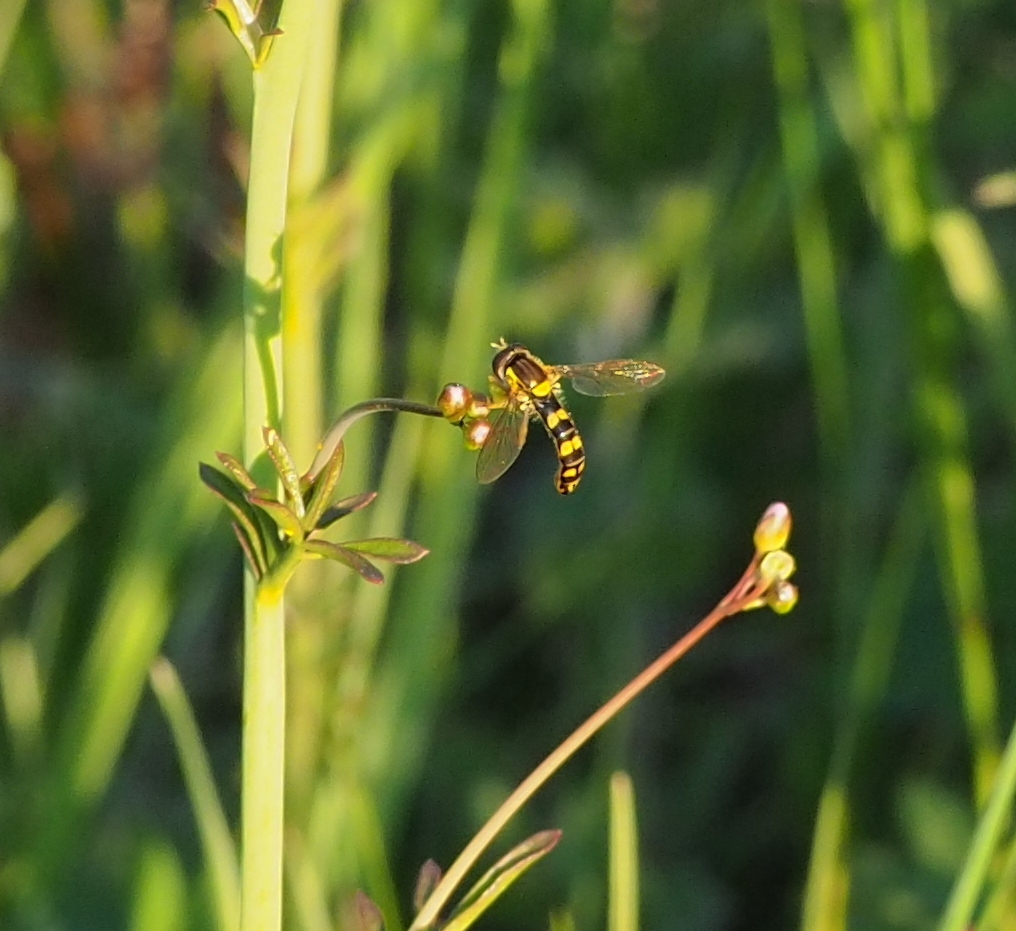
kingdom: Animalia
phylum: Arthropoda
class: Insecta
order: Diptera
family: Syrphidae
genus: Sphaerophoria
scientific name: Sphaerophoria scripta
